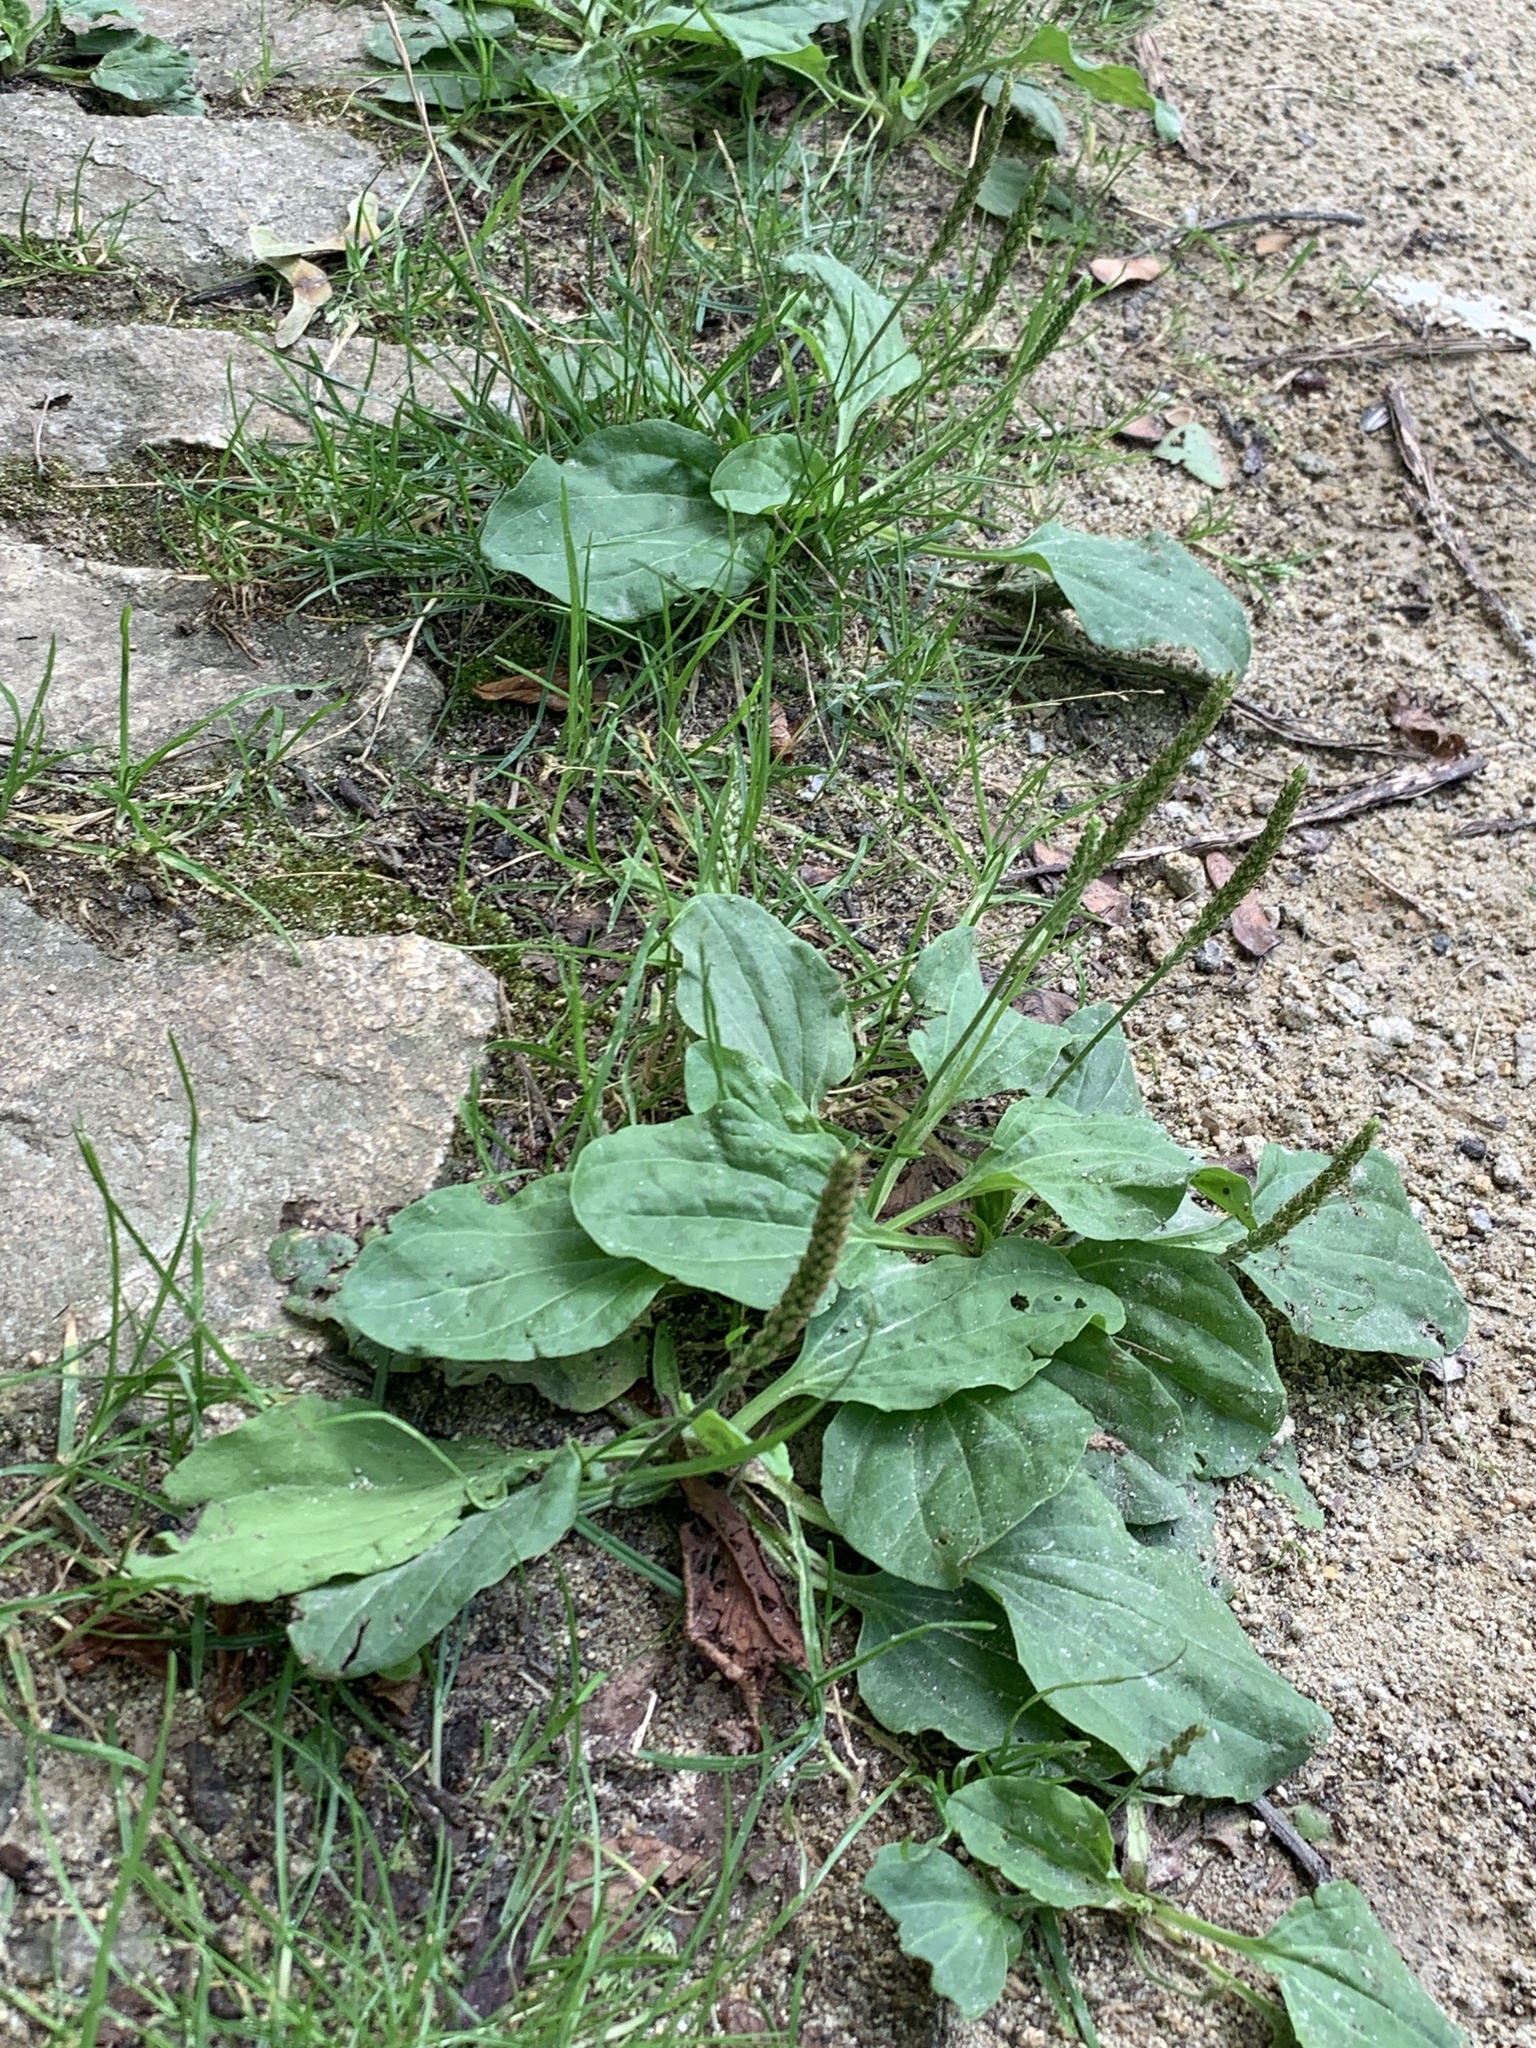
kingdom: Plantae
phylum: Tracheophyta
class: Magnoliopsida
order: Lamiales
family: Plantaginaceae
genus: Plantago
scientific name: Plantago major
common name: Common plantain
